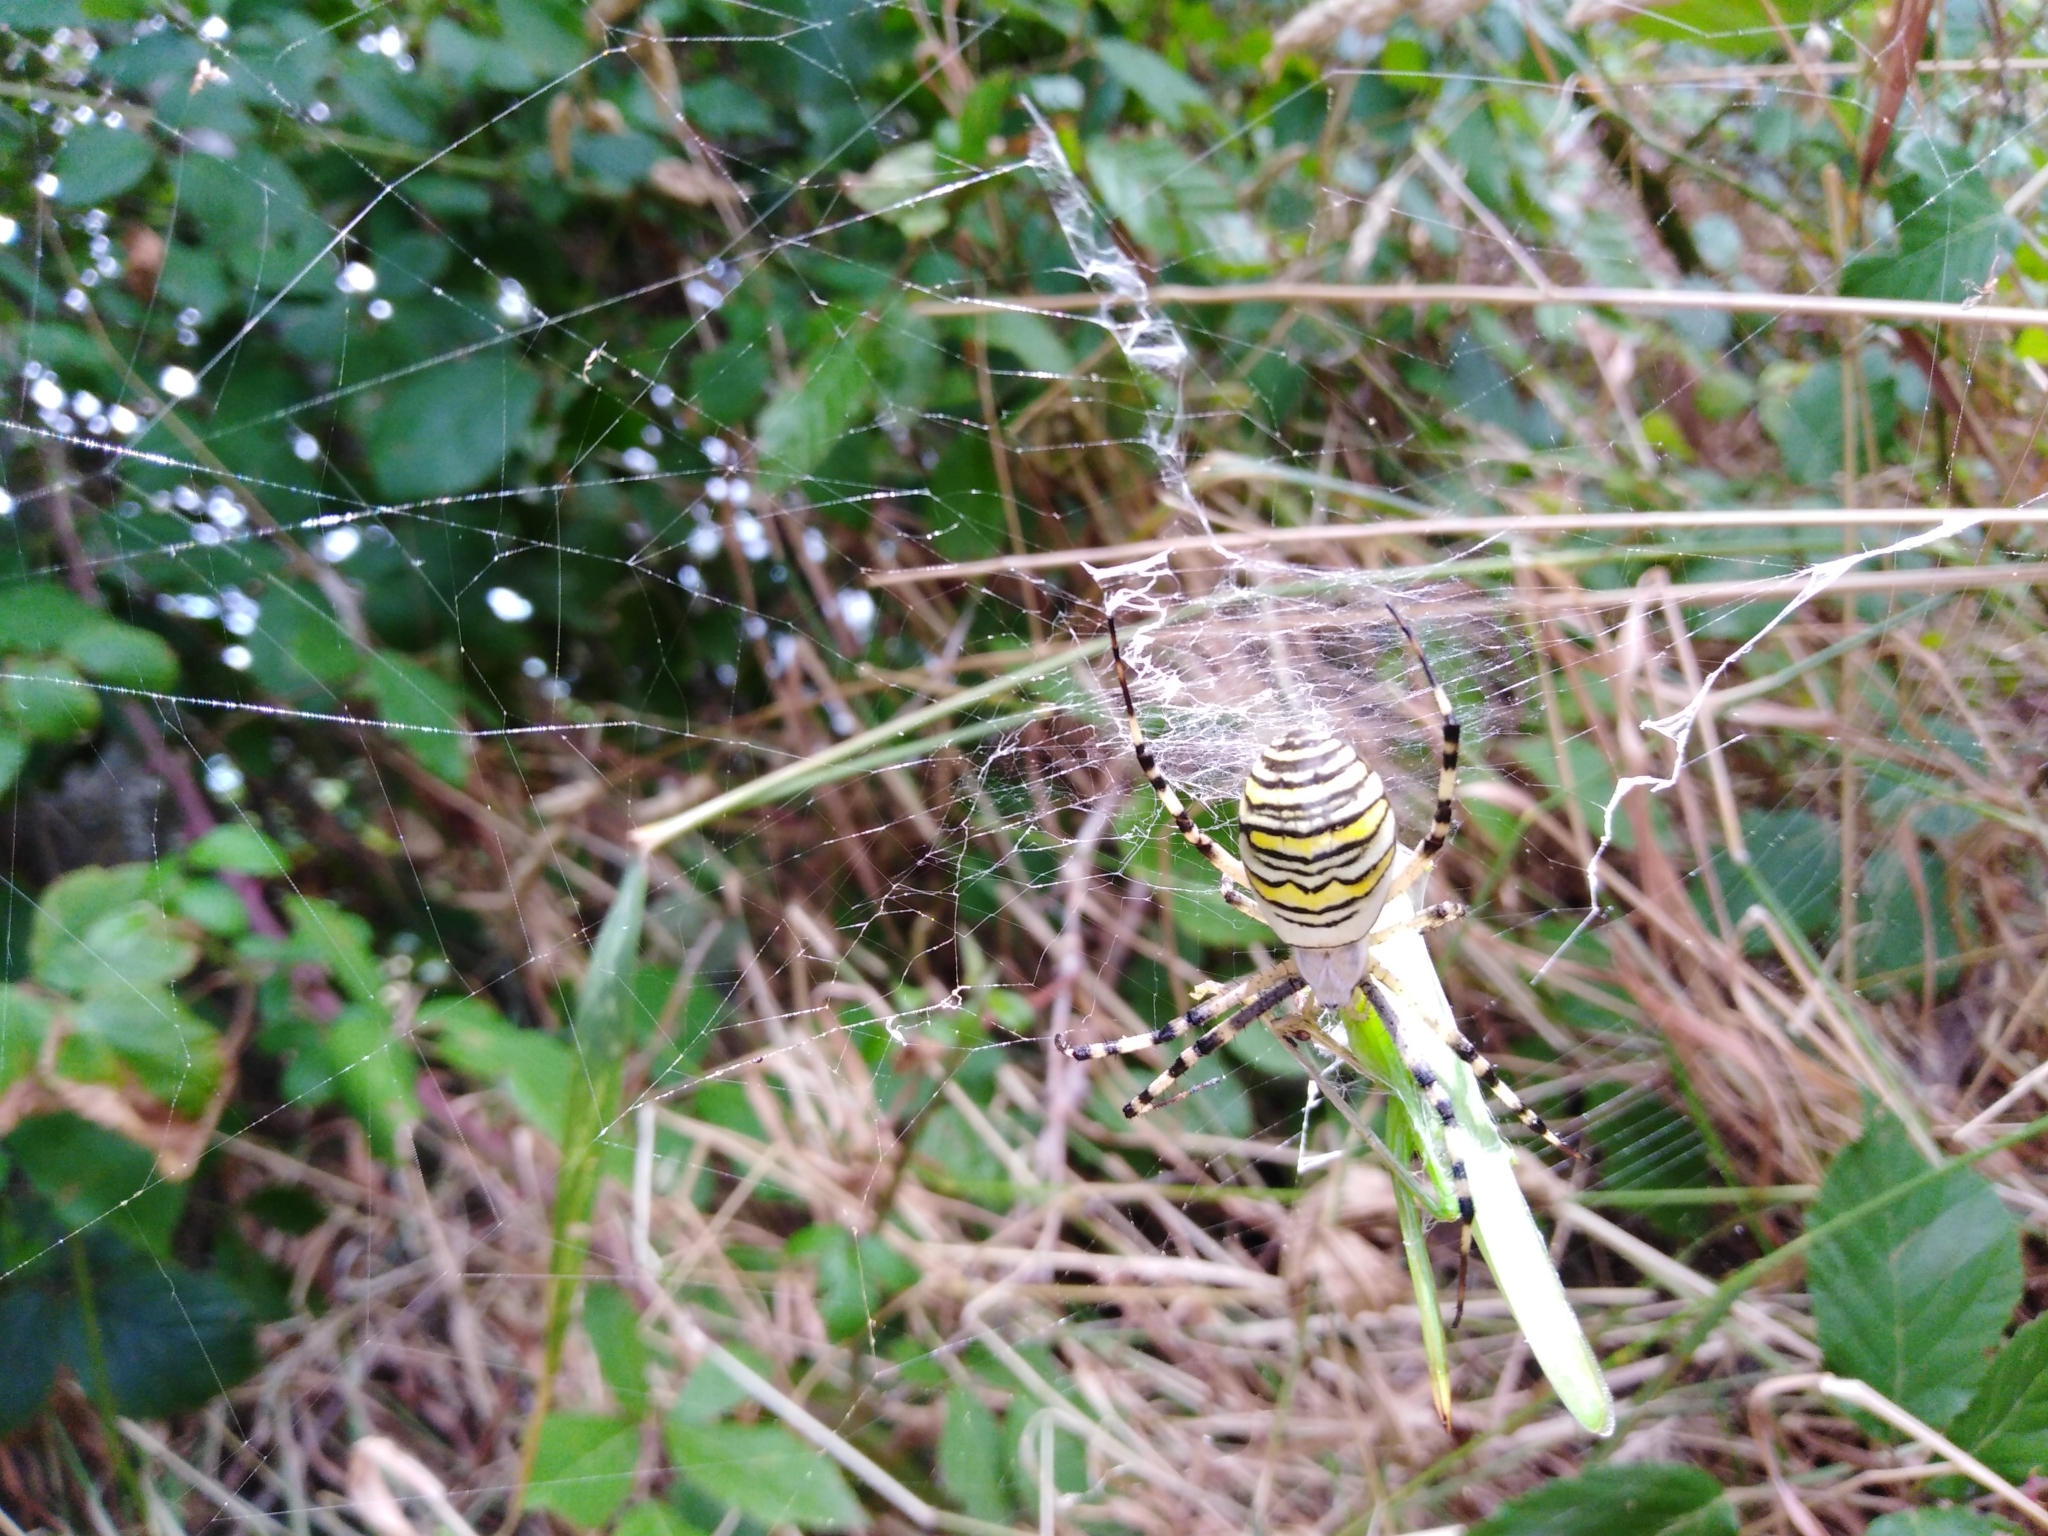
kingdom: Animalia
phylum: Arthropoda
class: Arachnida
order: Araneae
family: Araneidae
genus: Argiope
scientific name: Argiope bruennichi
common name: Wasp spider
